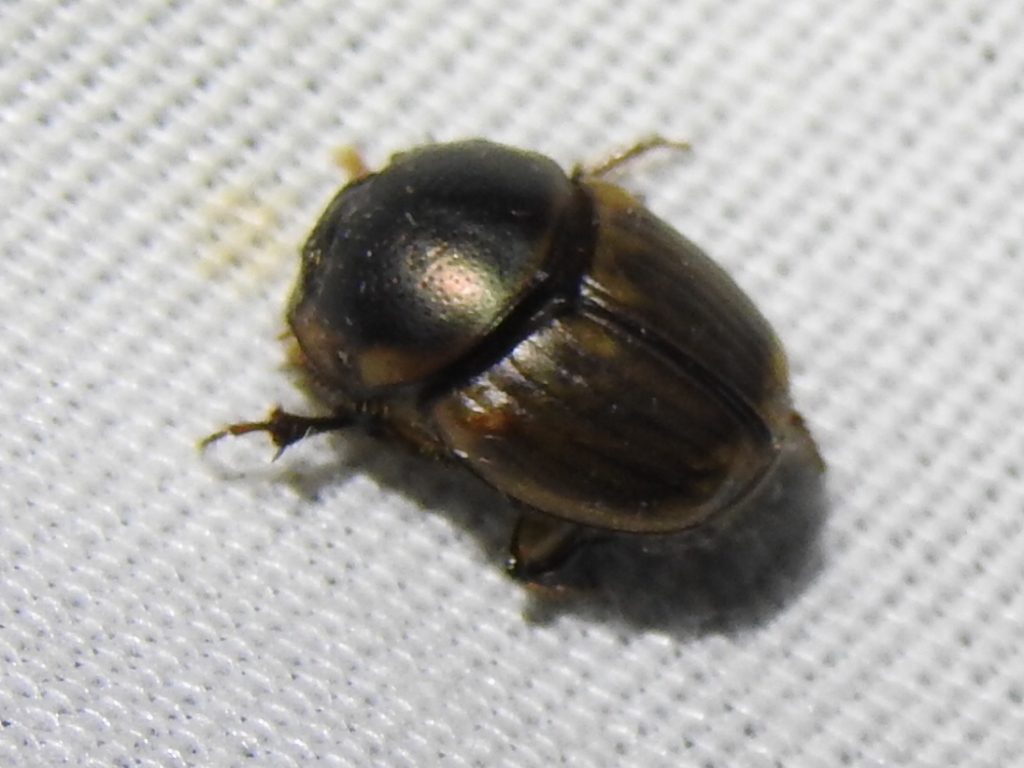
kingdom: Animalia
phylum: Arthropoda
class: Insecta
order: Coleoptera
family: Scarabaeidae
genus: Digitonthophagus
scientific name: Digitonthophagus gazella
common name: Brown dung beetle
